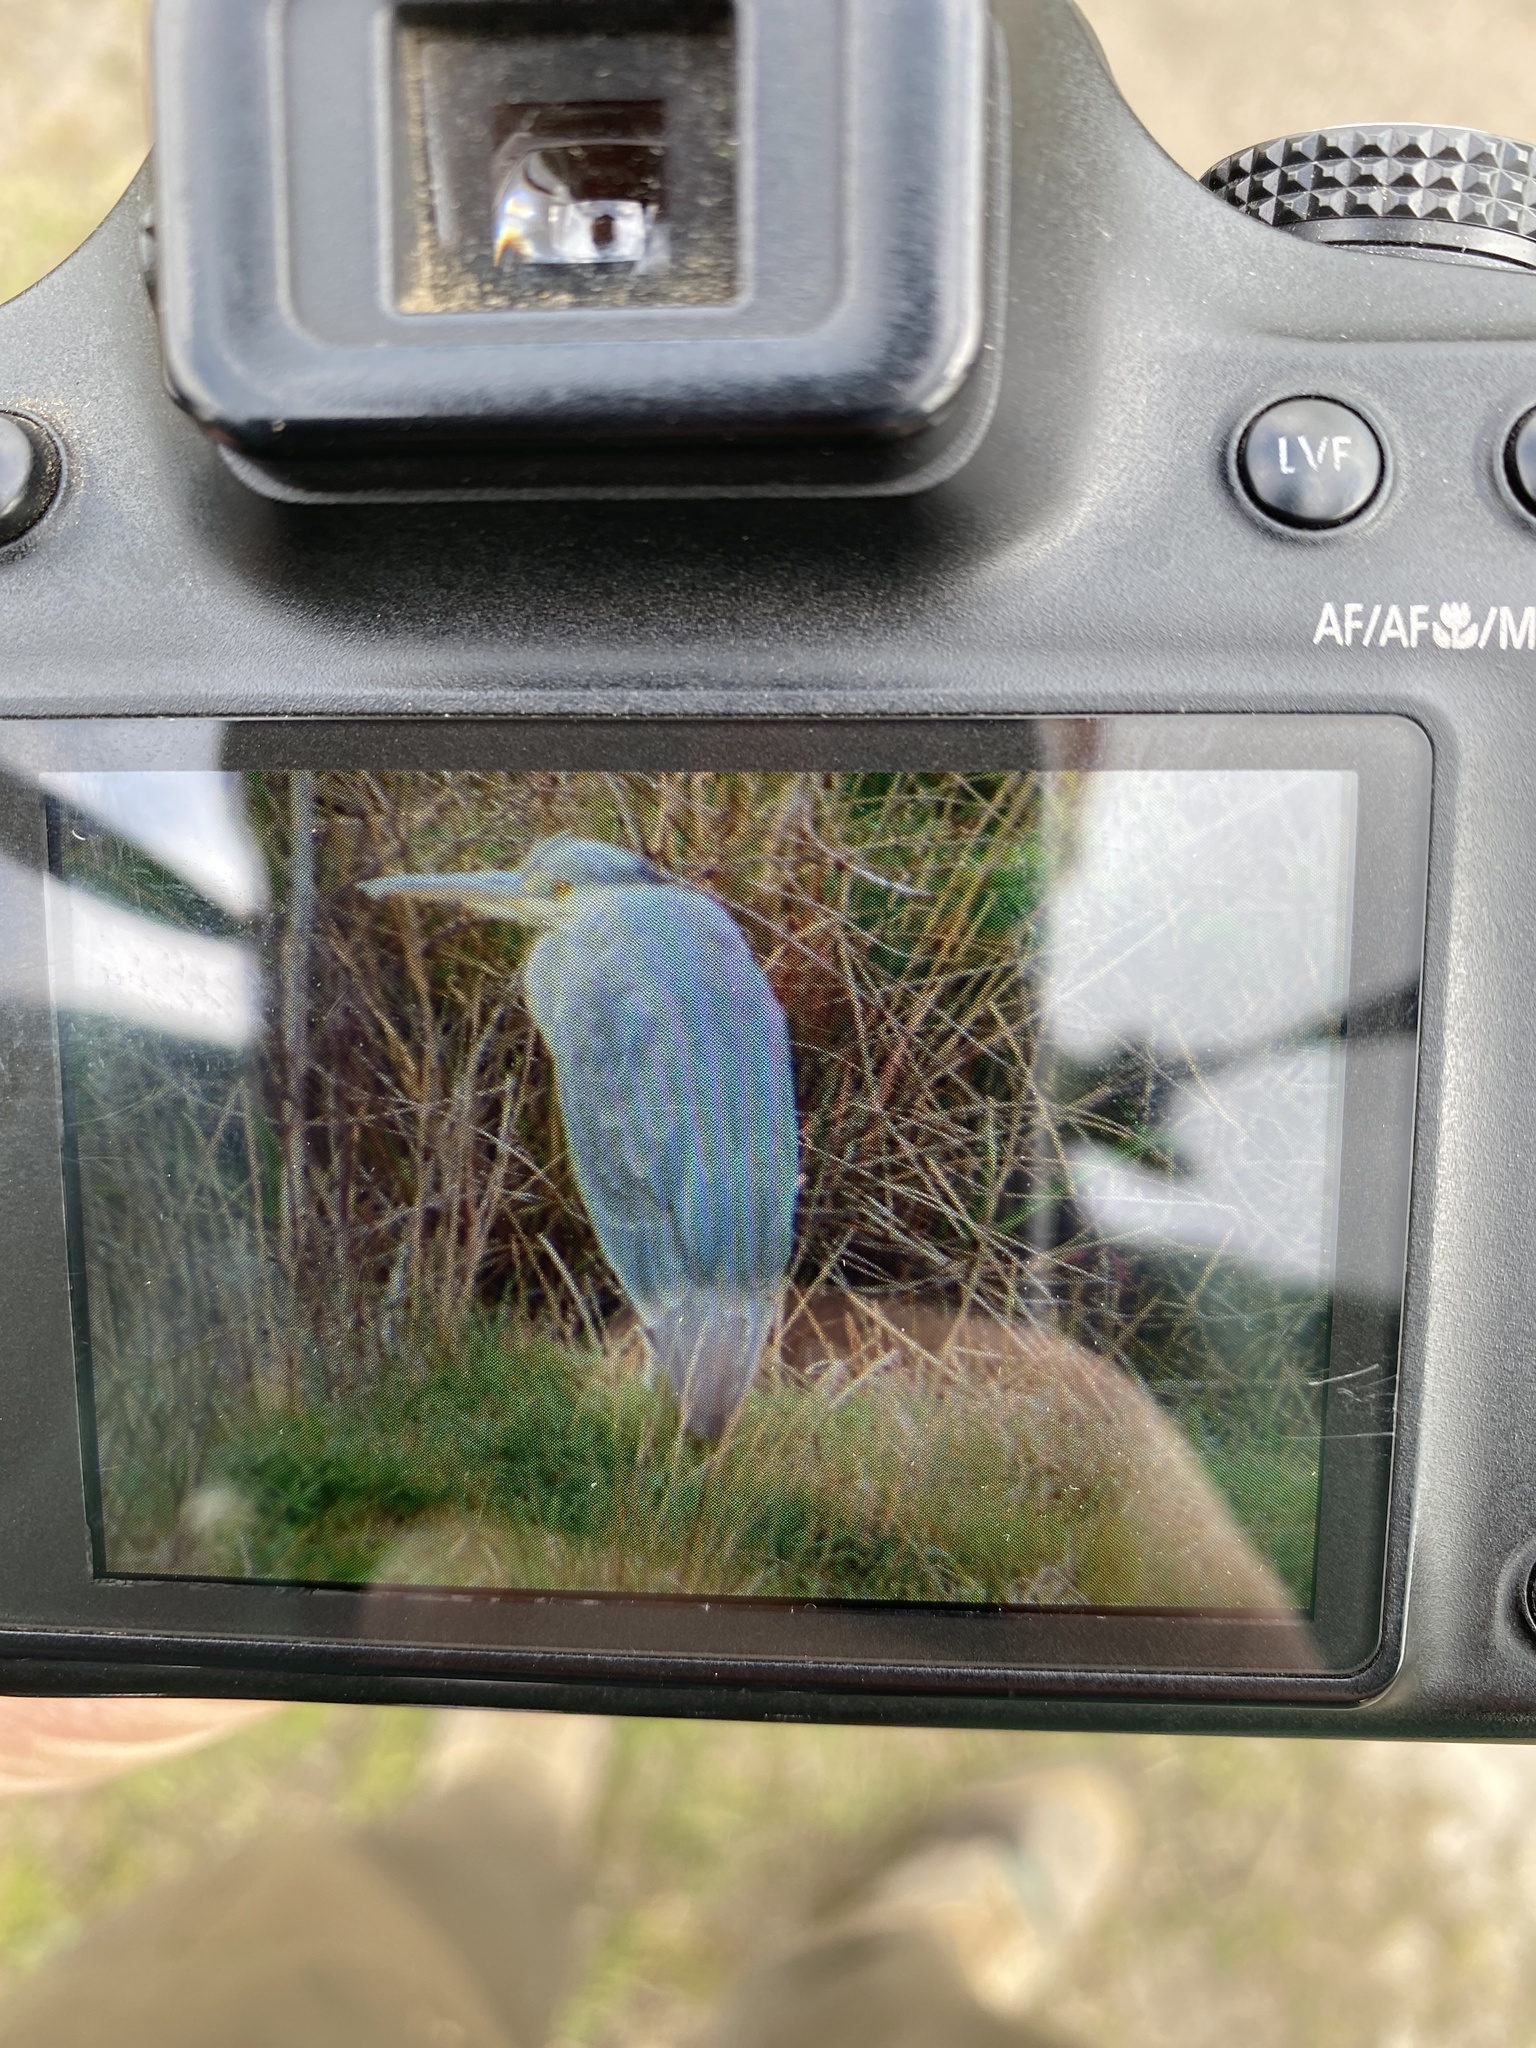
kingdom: Animalia
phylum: Chordata
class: Aves
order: Pelecaniformes
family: Ardeidae
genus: Ardea
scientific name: Ardea cinerea
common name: Grey heron
